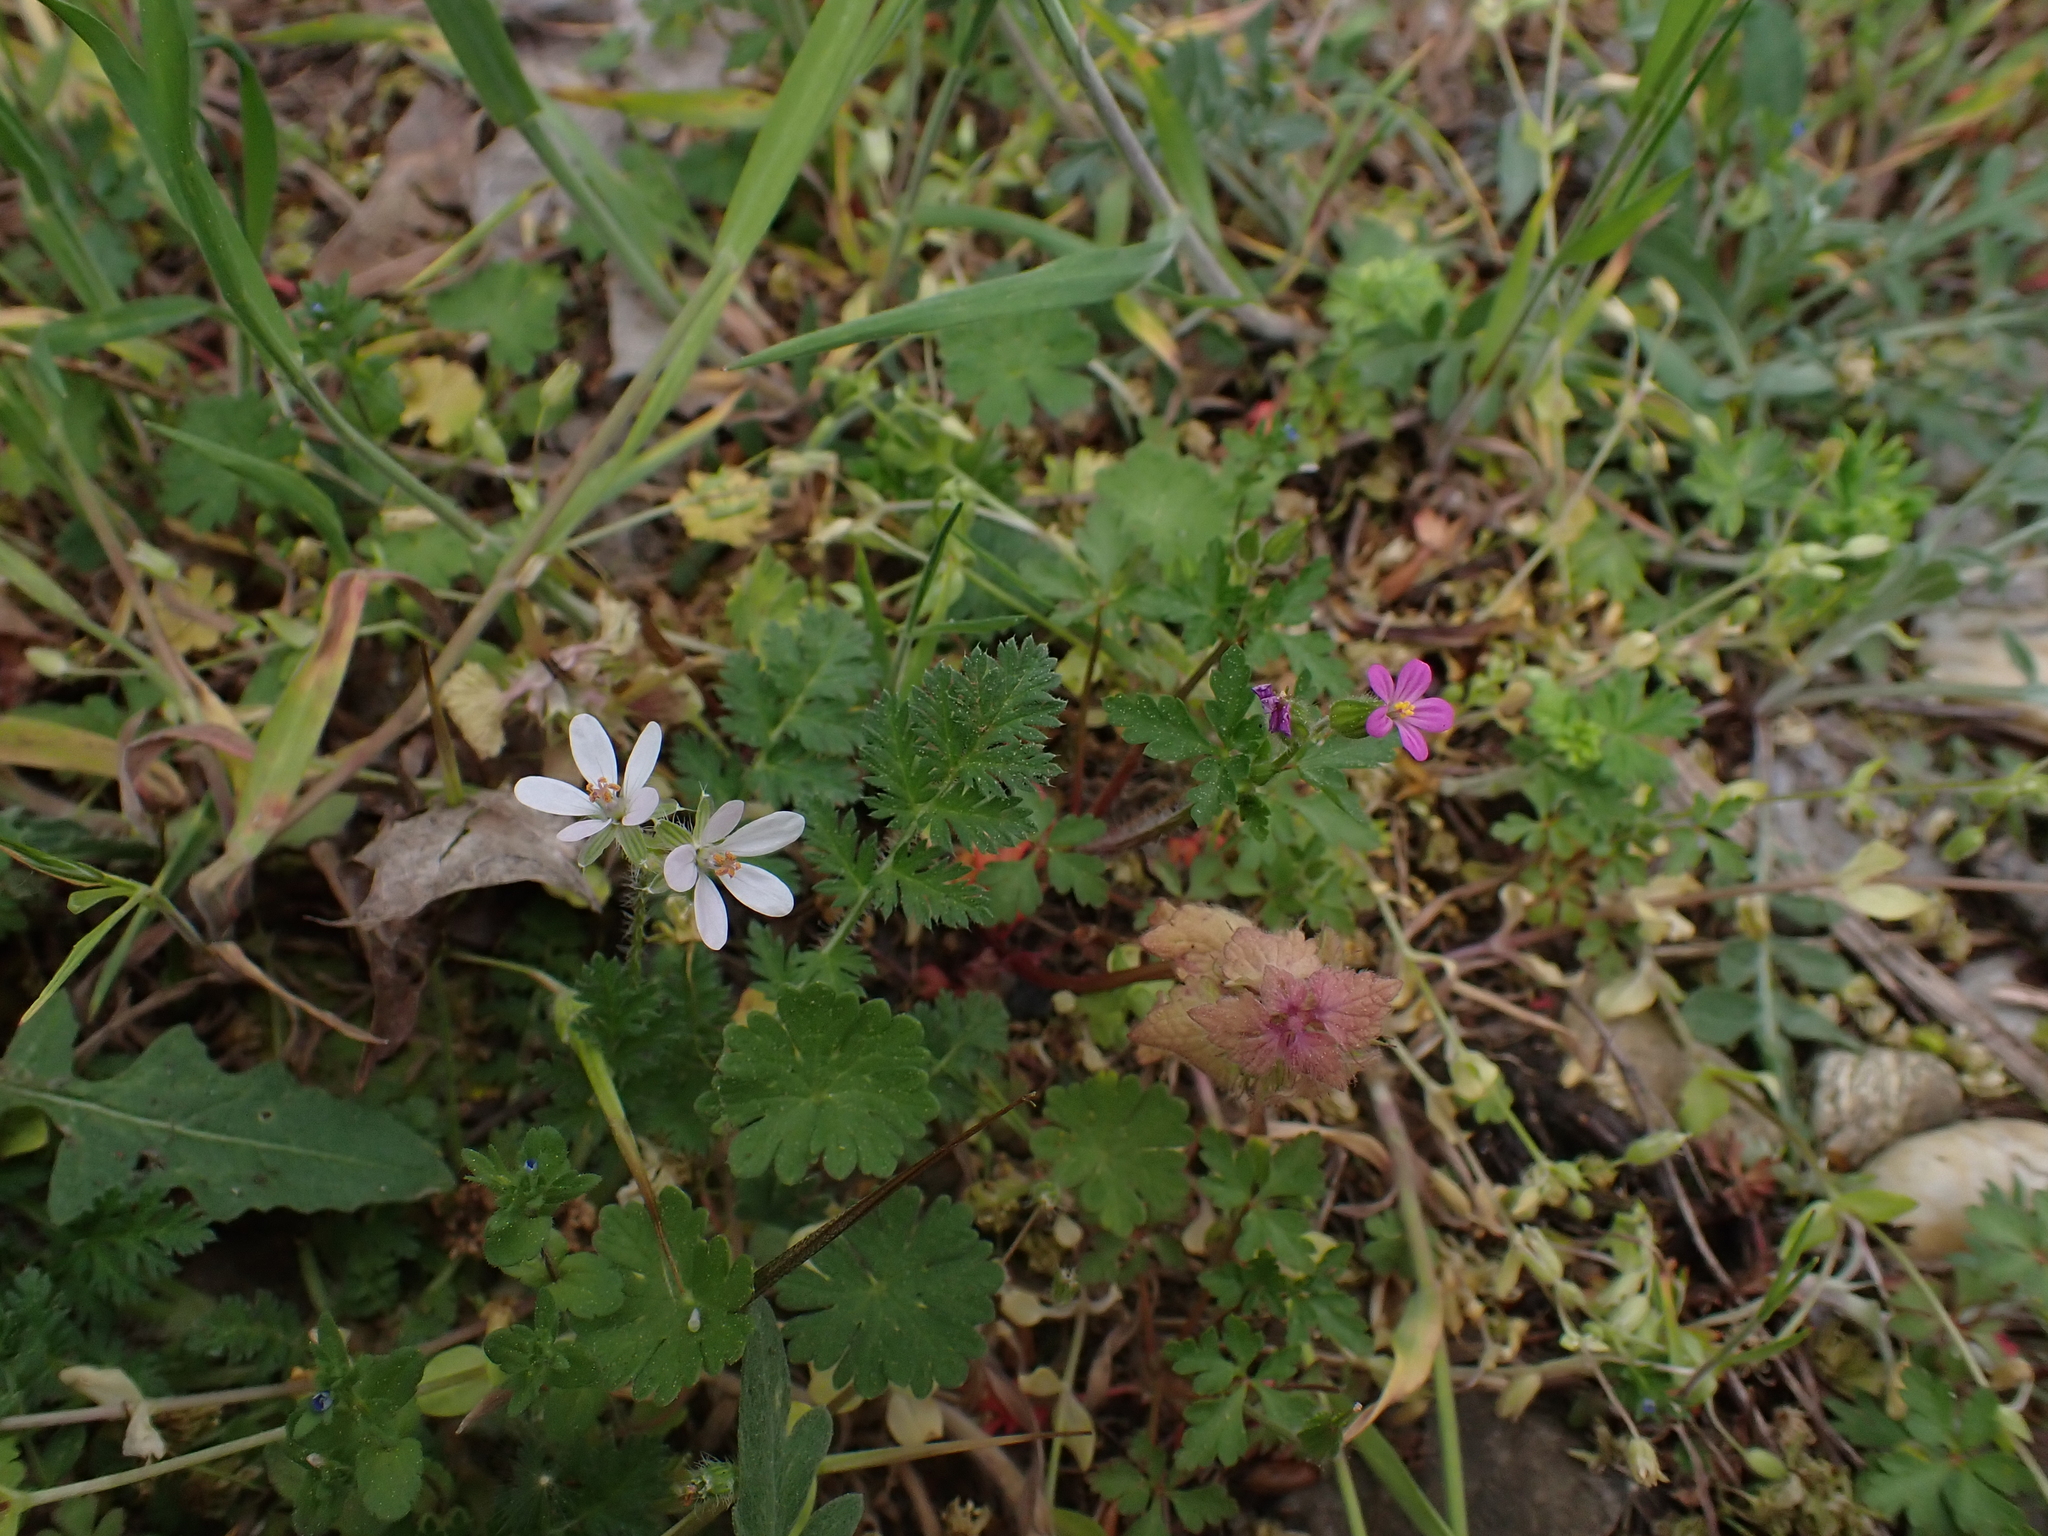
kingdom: Plantae
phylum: Tracheophyta
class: Magnoliopsida
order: Geraniales
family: Geraniaceae
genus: Erodium
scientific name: Erodium cicutarium
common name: Common stork's-bill
